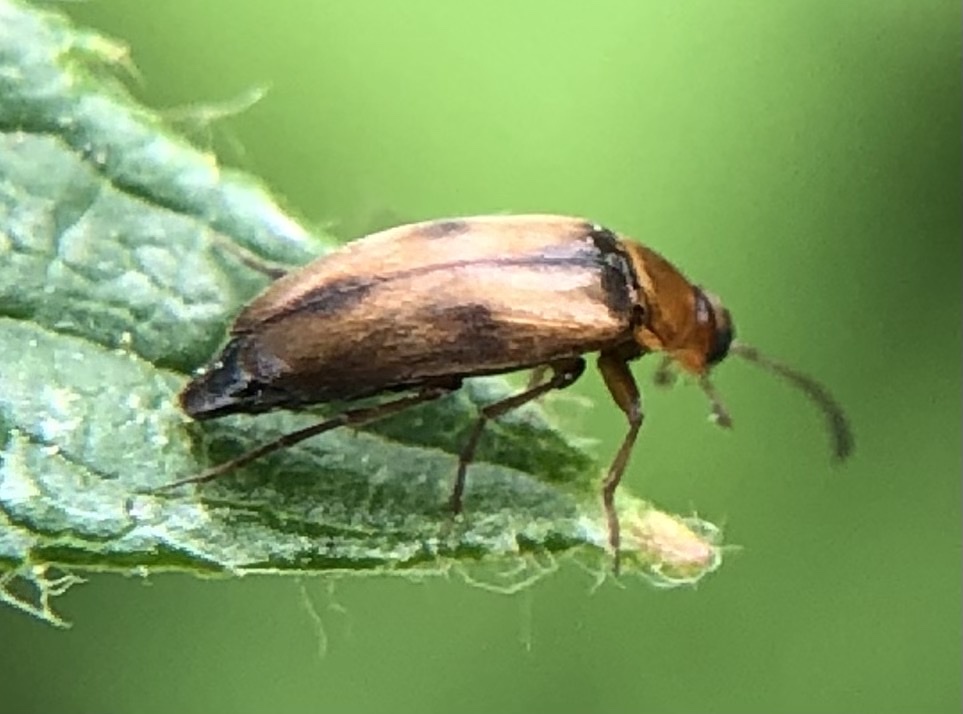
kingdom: Animalia
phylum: Arthropoda
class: Insecta
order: Coleoptera
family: Scraptiidae
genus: Anaspis
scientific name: Anaspis maculata
